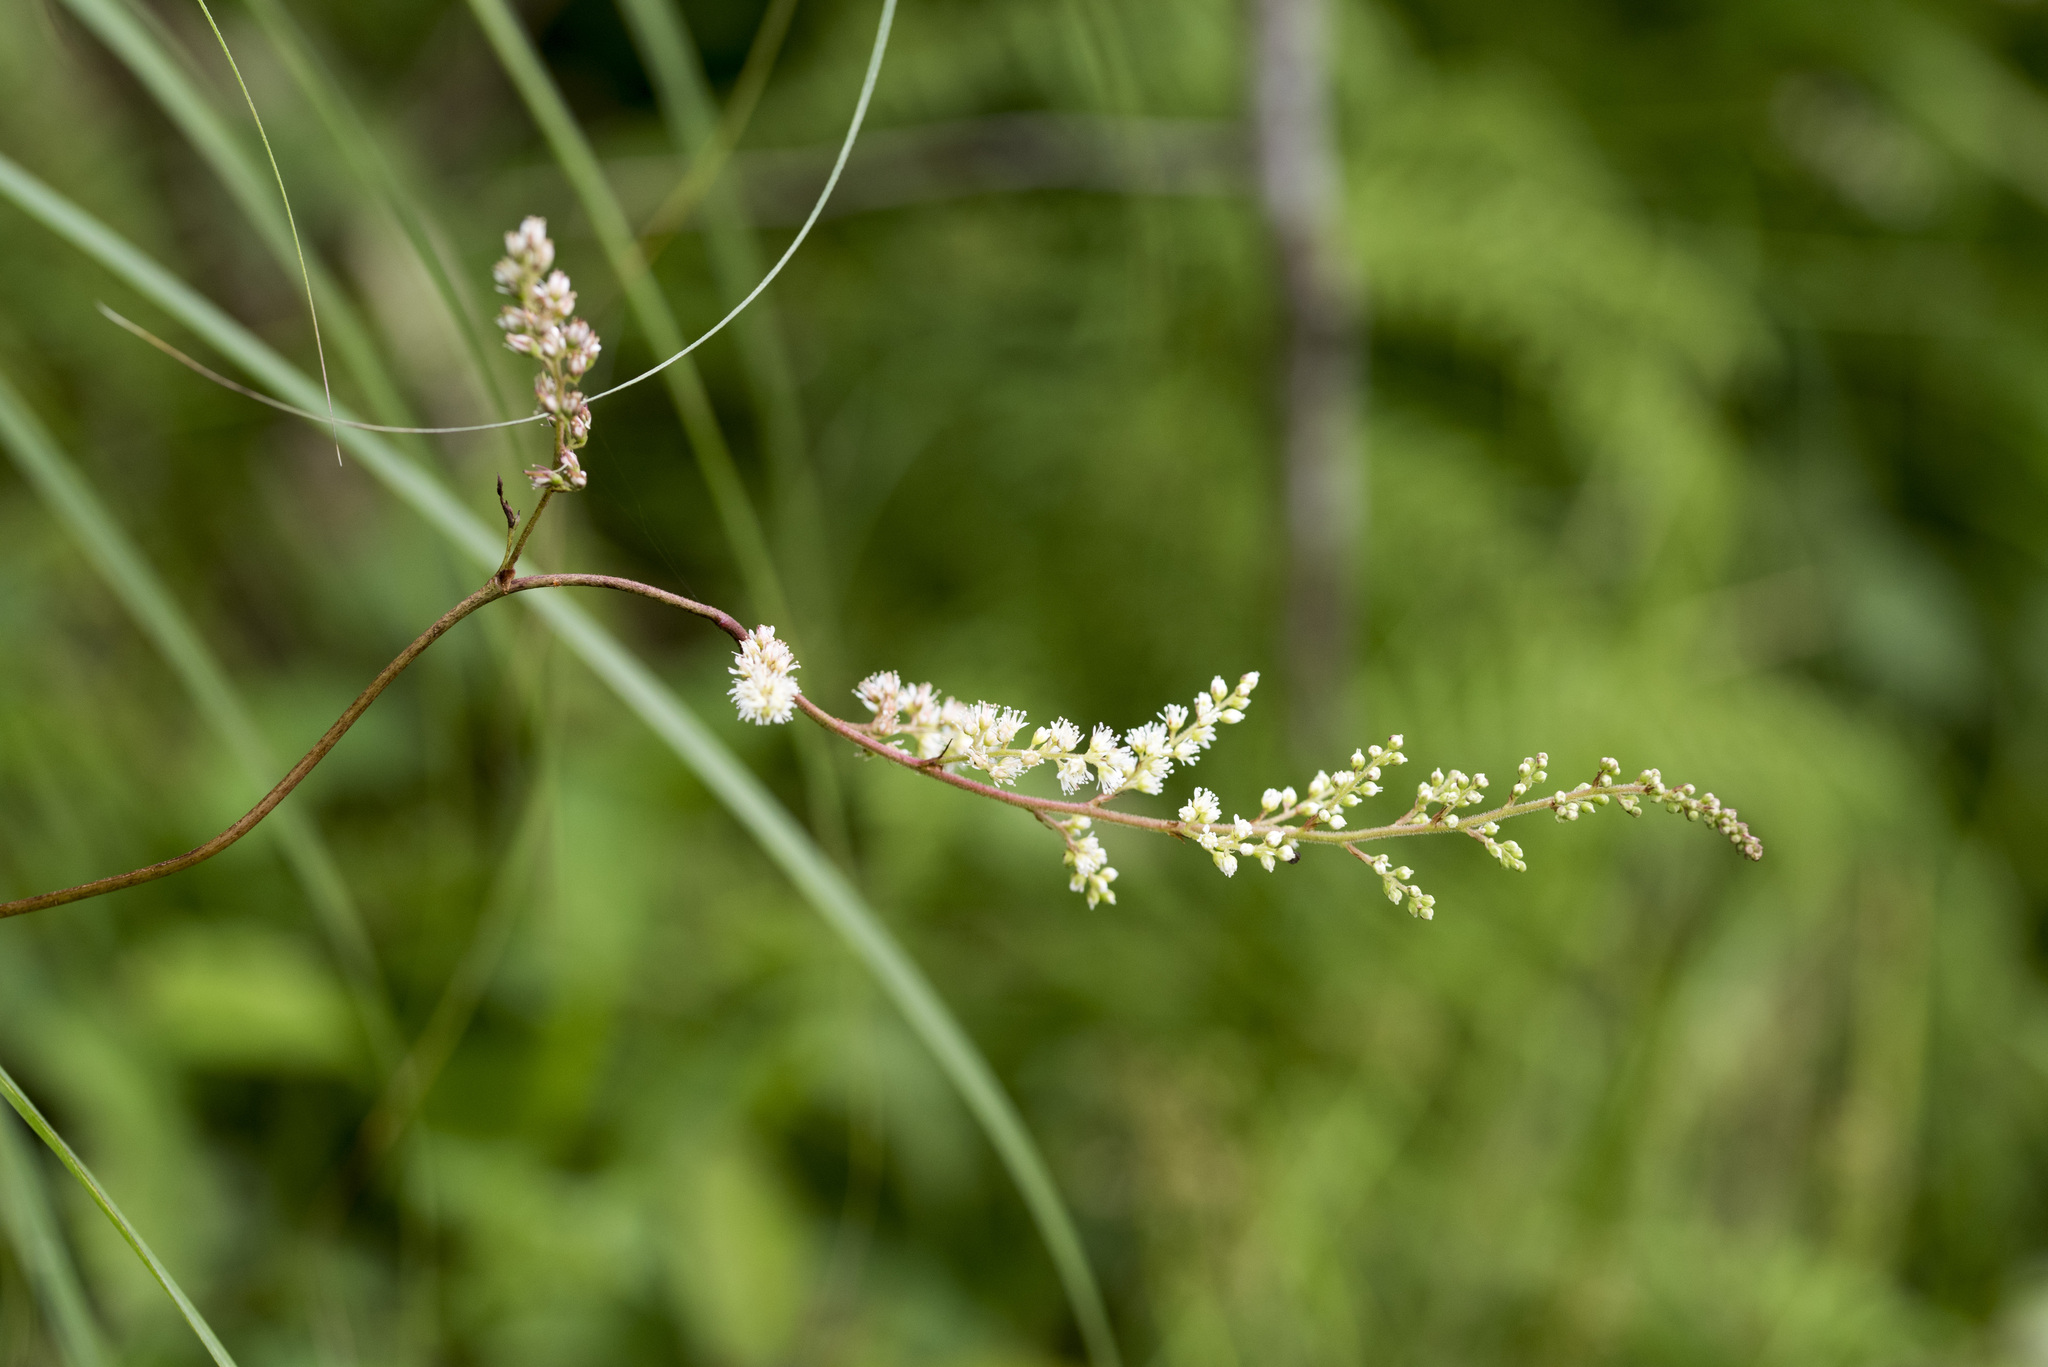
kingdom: Plantae
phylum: Tracheophyta
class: Magnoliopsida
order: Saxifragales
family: Saxifragaceae
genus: Astilbe
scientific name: Astilbe longicarpa
